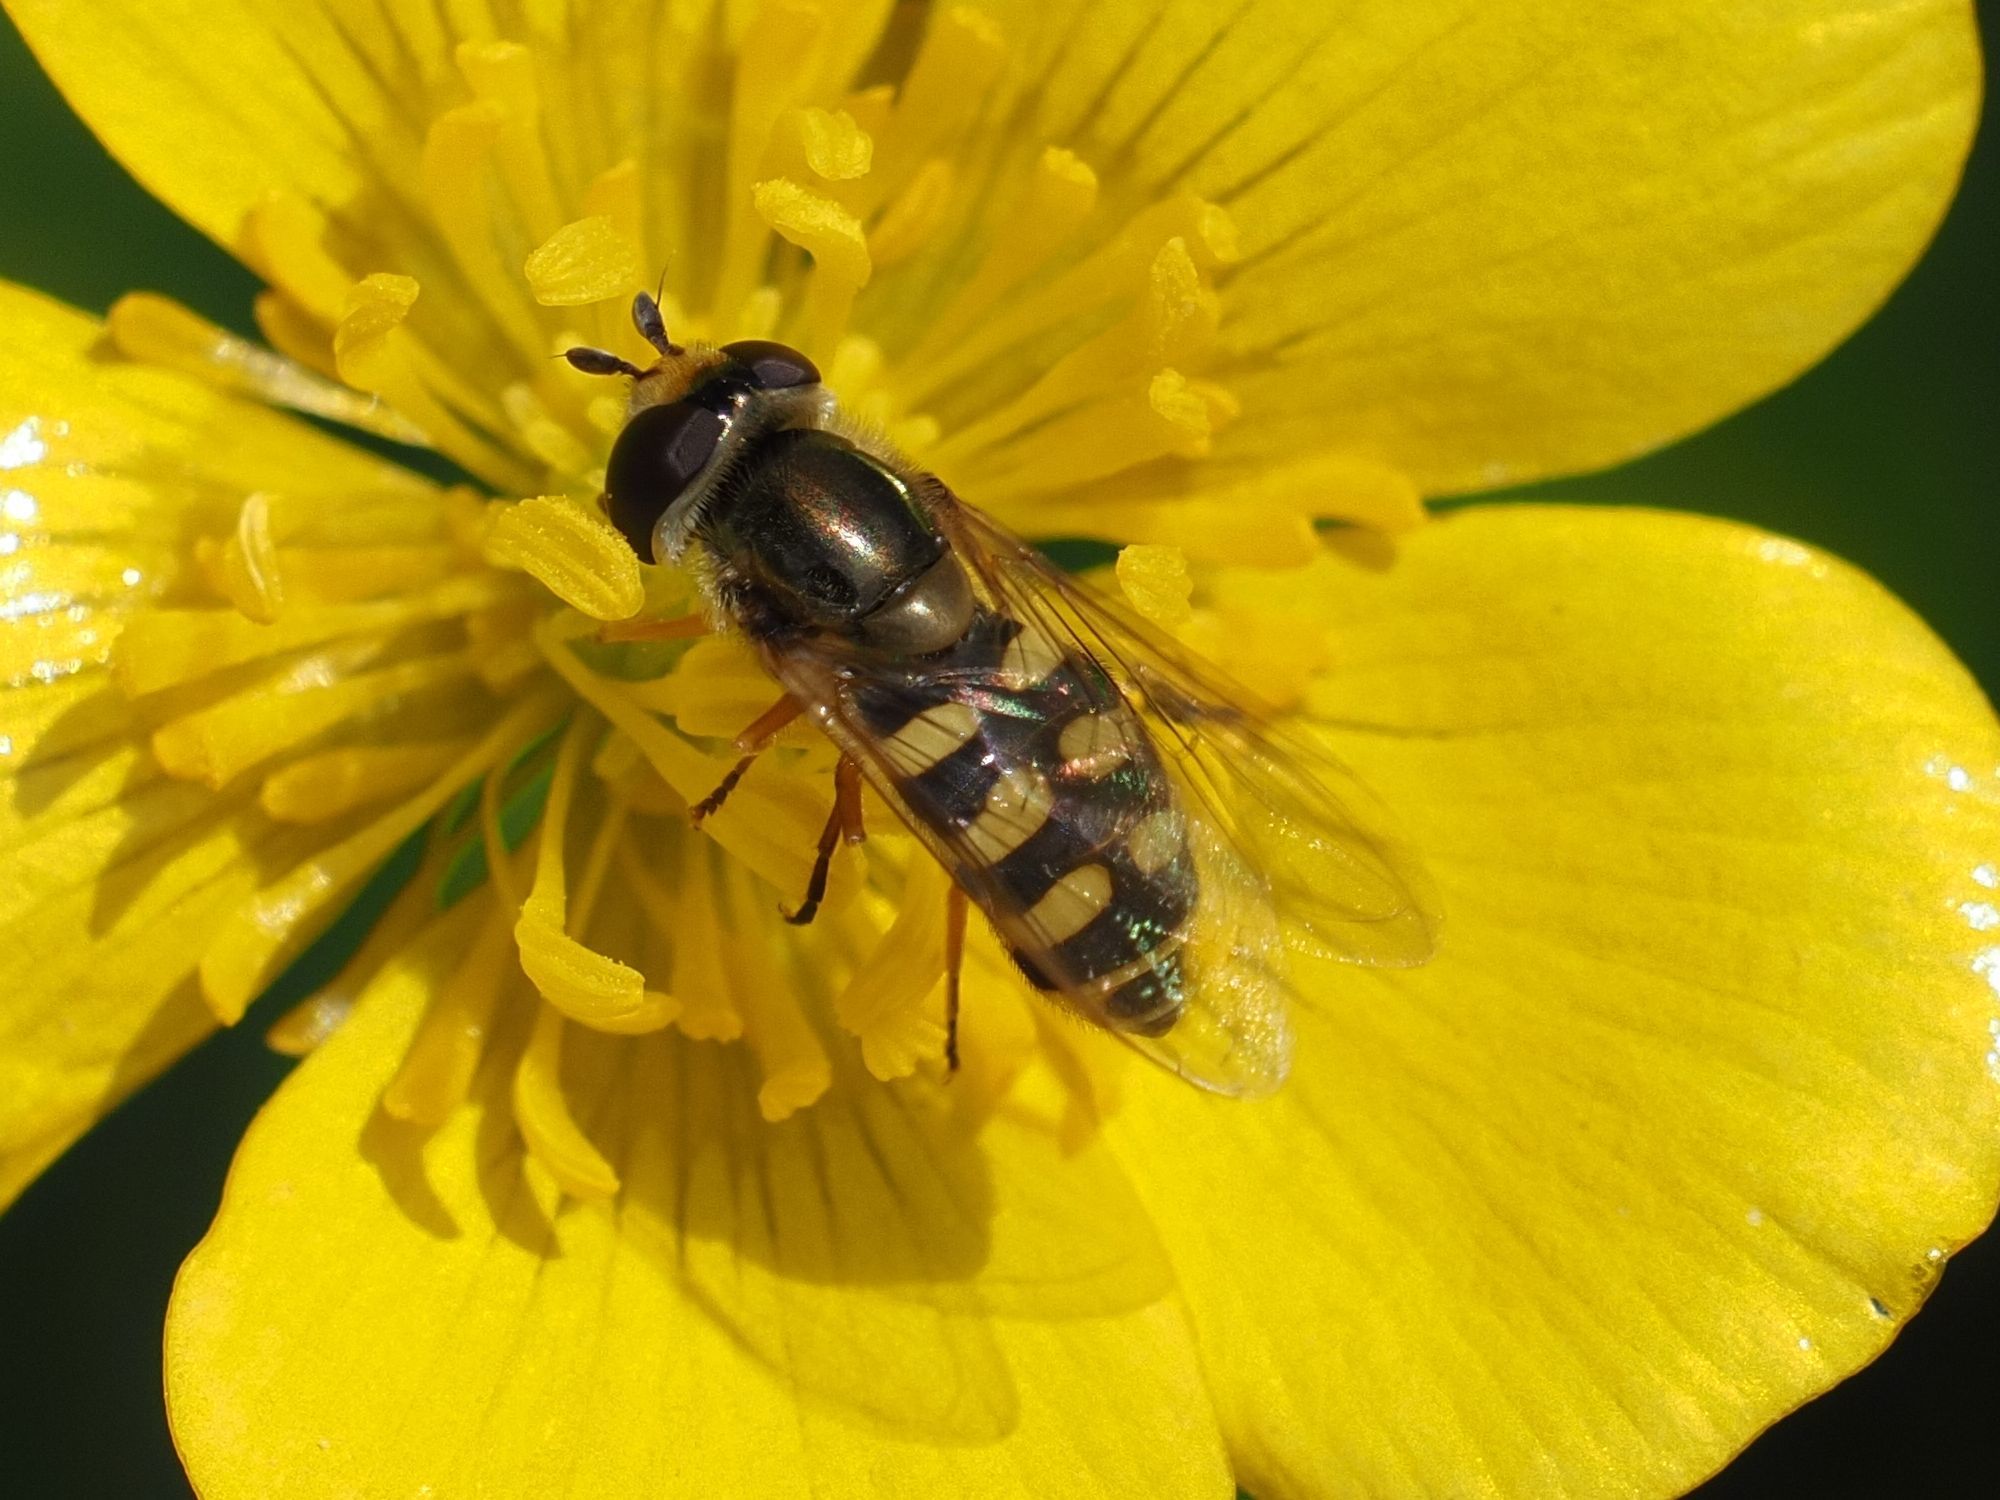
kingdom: Animalia
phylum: Arthropoda
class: Insecta
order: Diptera
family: Syrphidae
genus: Eupeodes
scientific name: Eupeodes corollae
